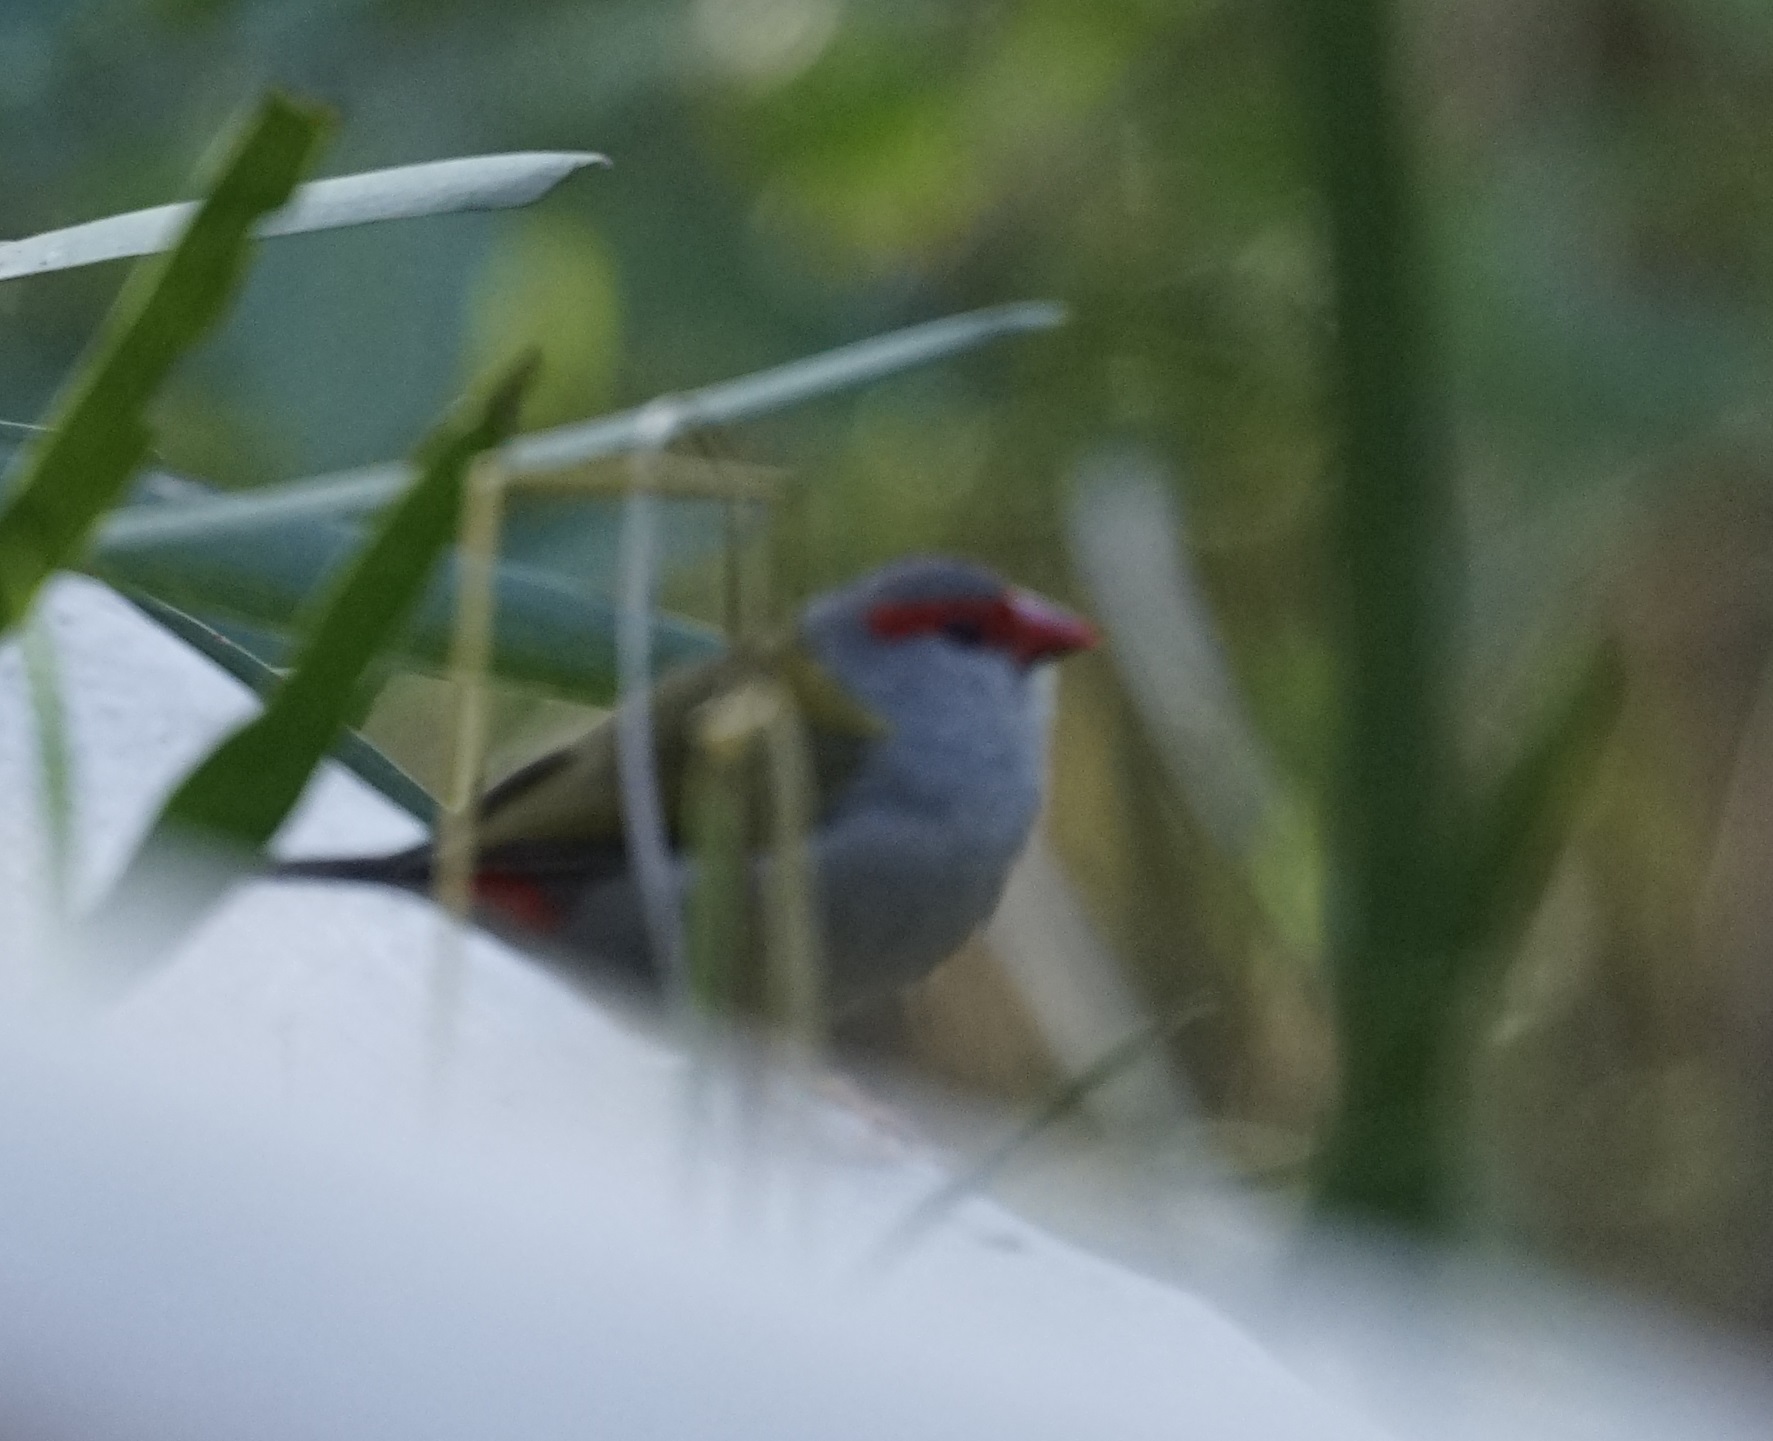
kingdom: Animalia
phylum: Chordata
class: Aves
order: Passeriformes
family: Estrildidae
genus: Neochmia
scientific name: Neochmia temporalis
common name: Red-browed finch
